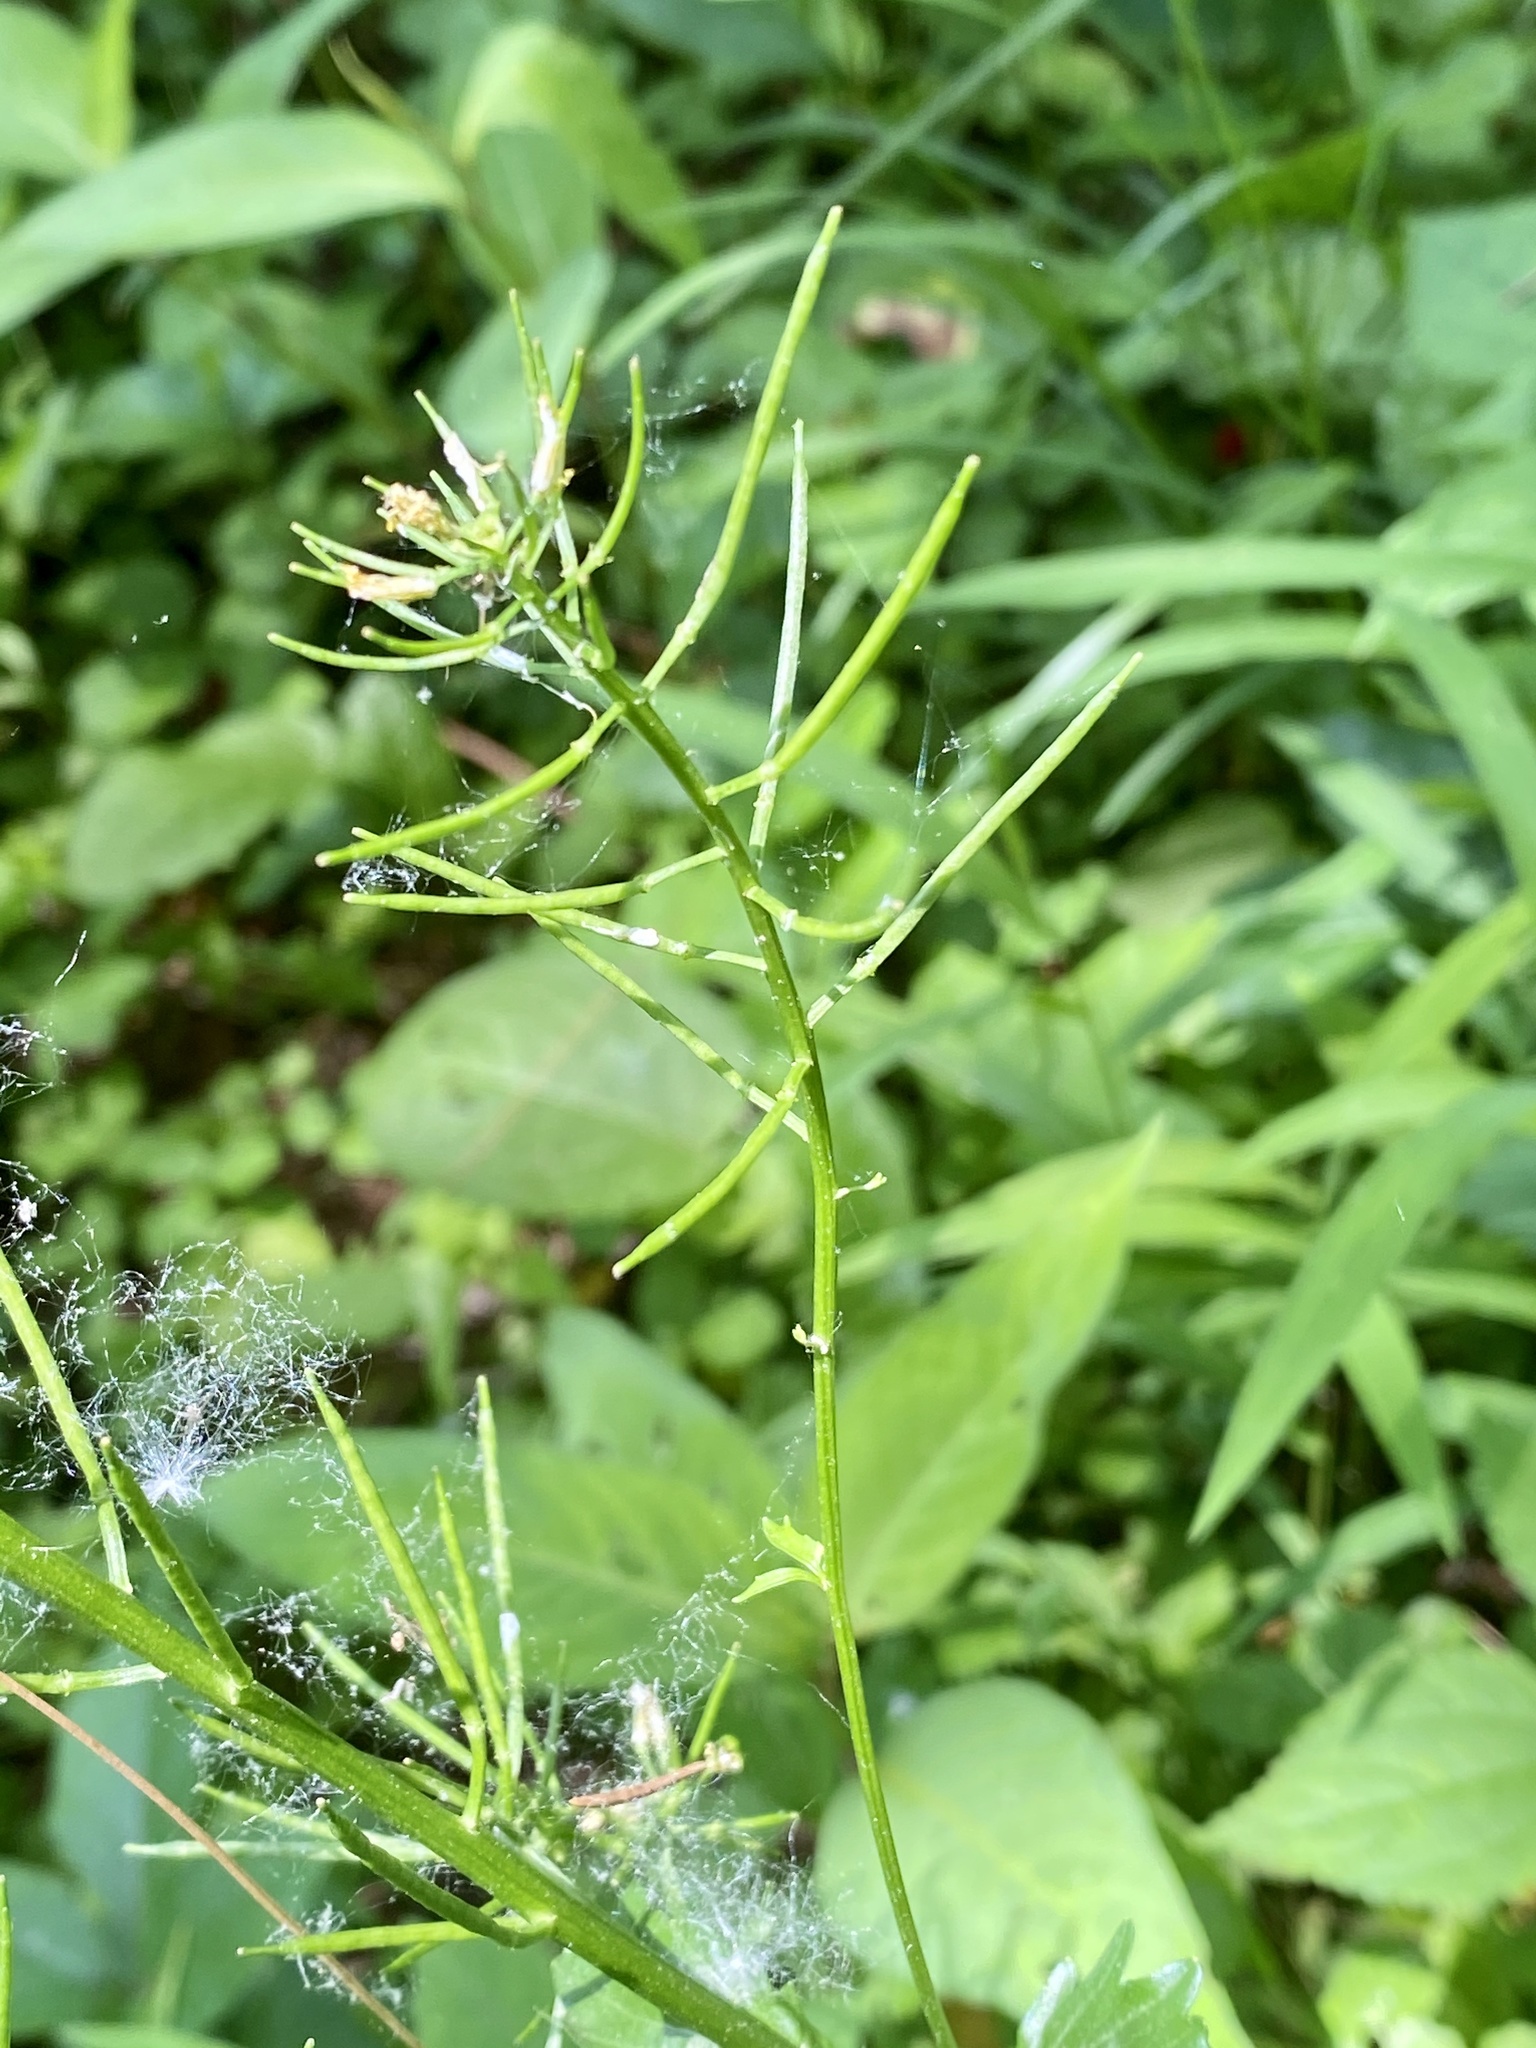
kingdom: Plantae
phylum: Tracheophyta
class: Magnoliopsida
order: Brassicales
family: Brassicaceae
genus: Barbarea
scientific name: Barbarea vulgaris
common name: Cressy-greens
